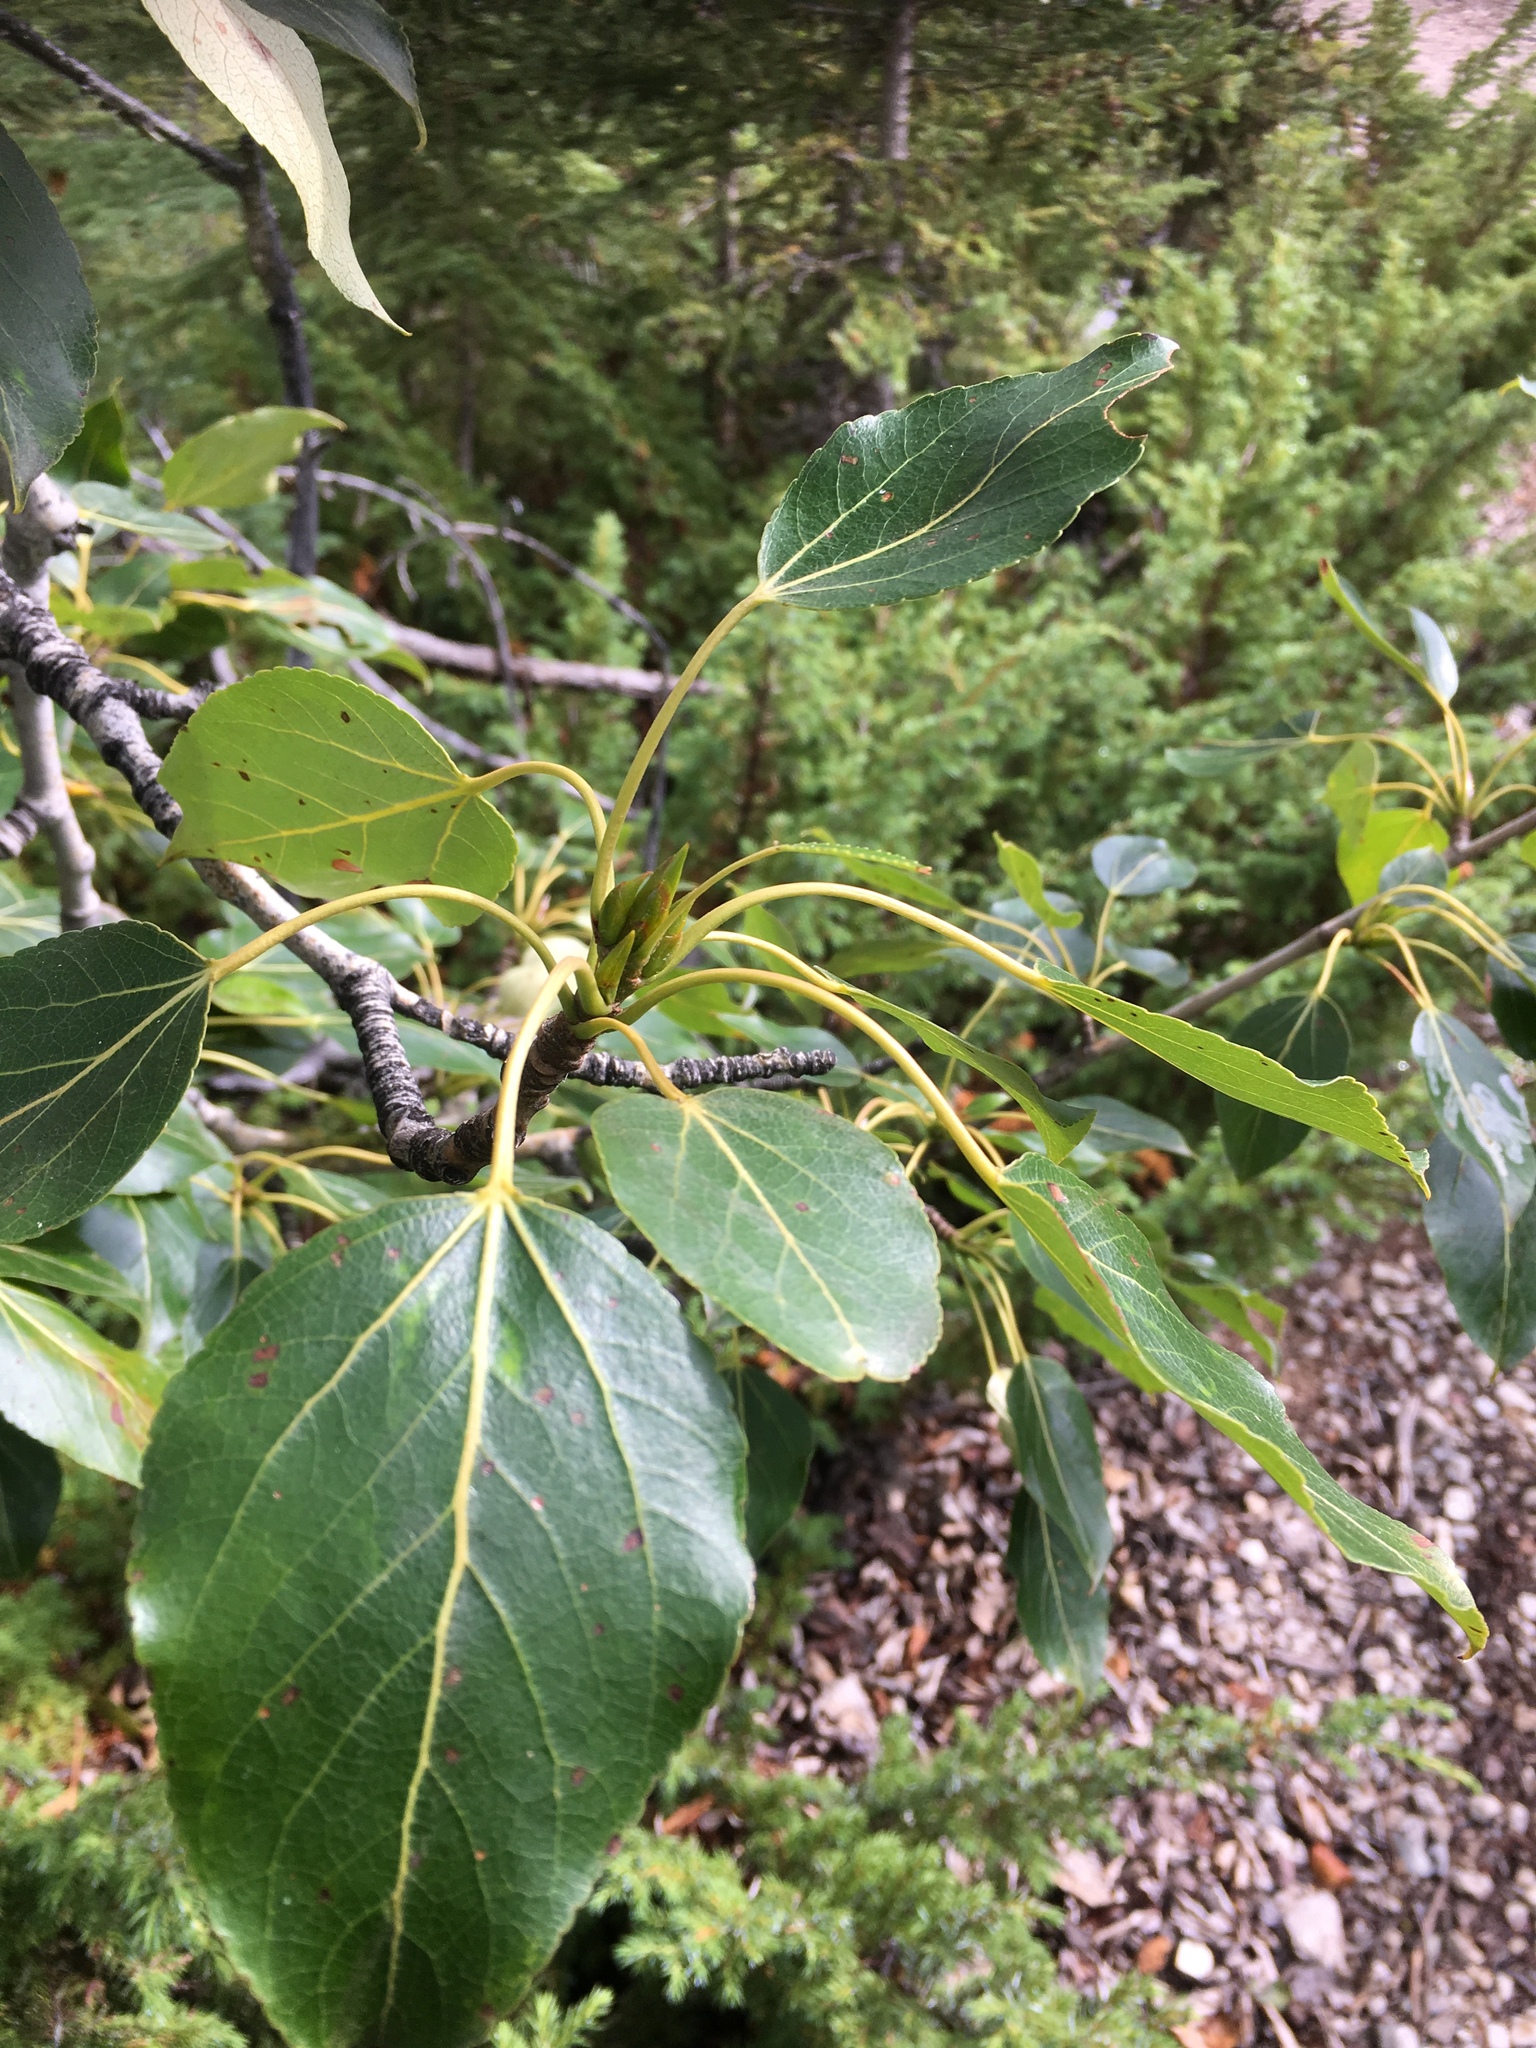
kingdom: Plantae
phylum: Tracheophyta
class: Magnoliopsida
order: Malpighiales
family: Salicaceae
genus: Populus
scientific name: Populus balsamifera
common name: Balsam poplar
